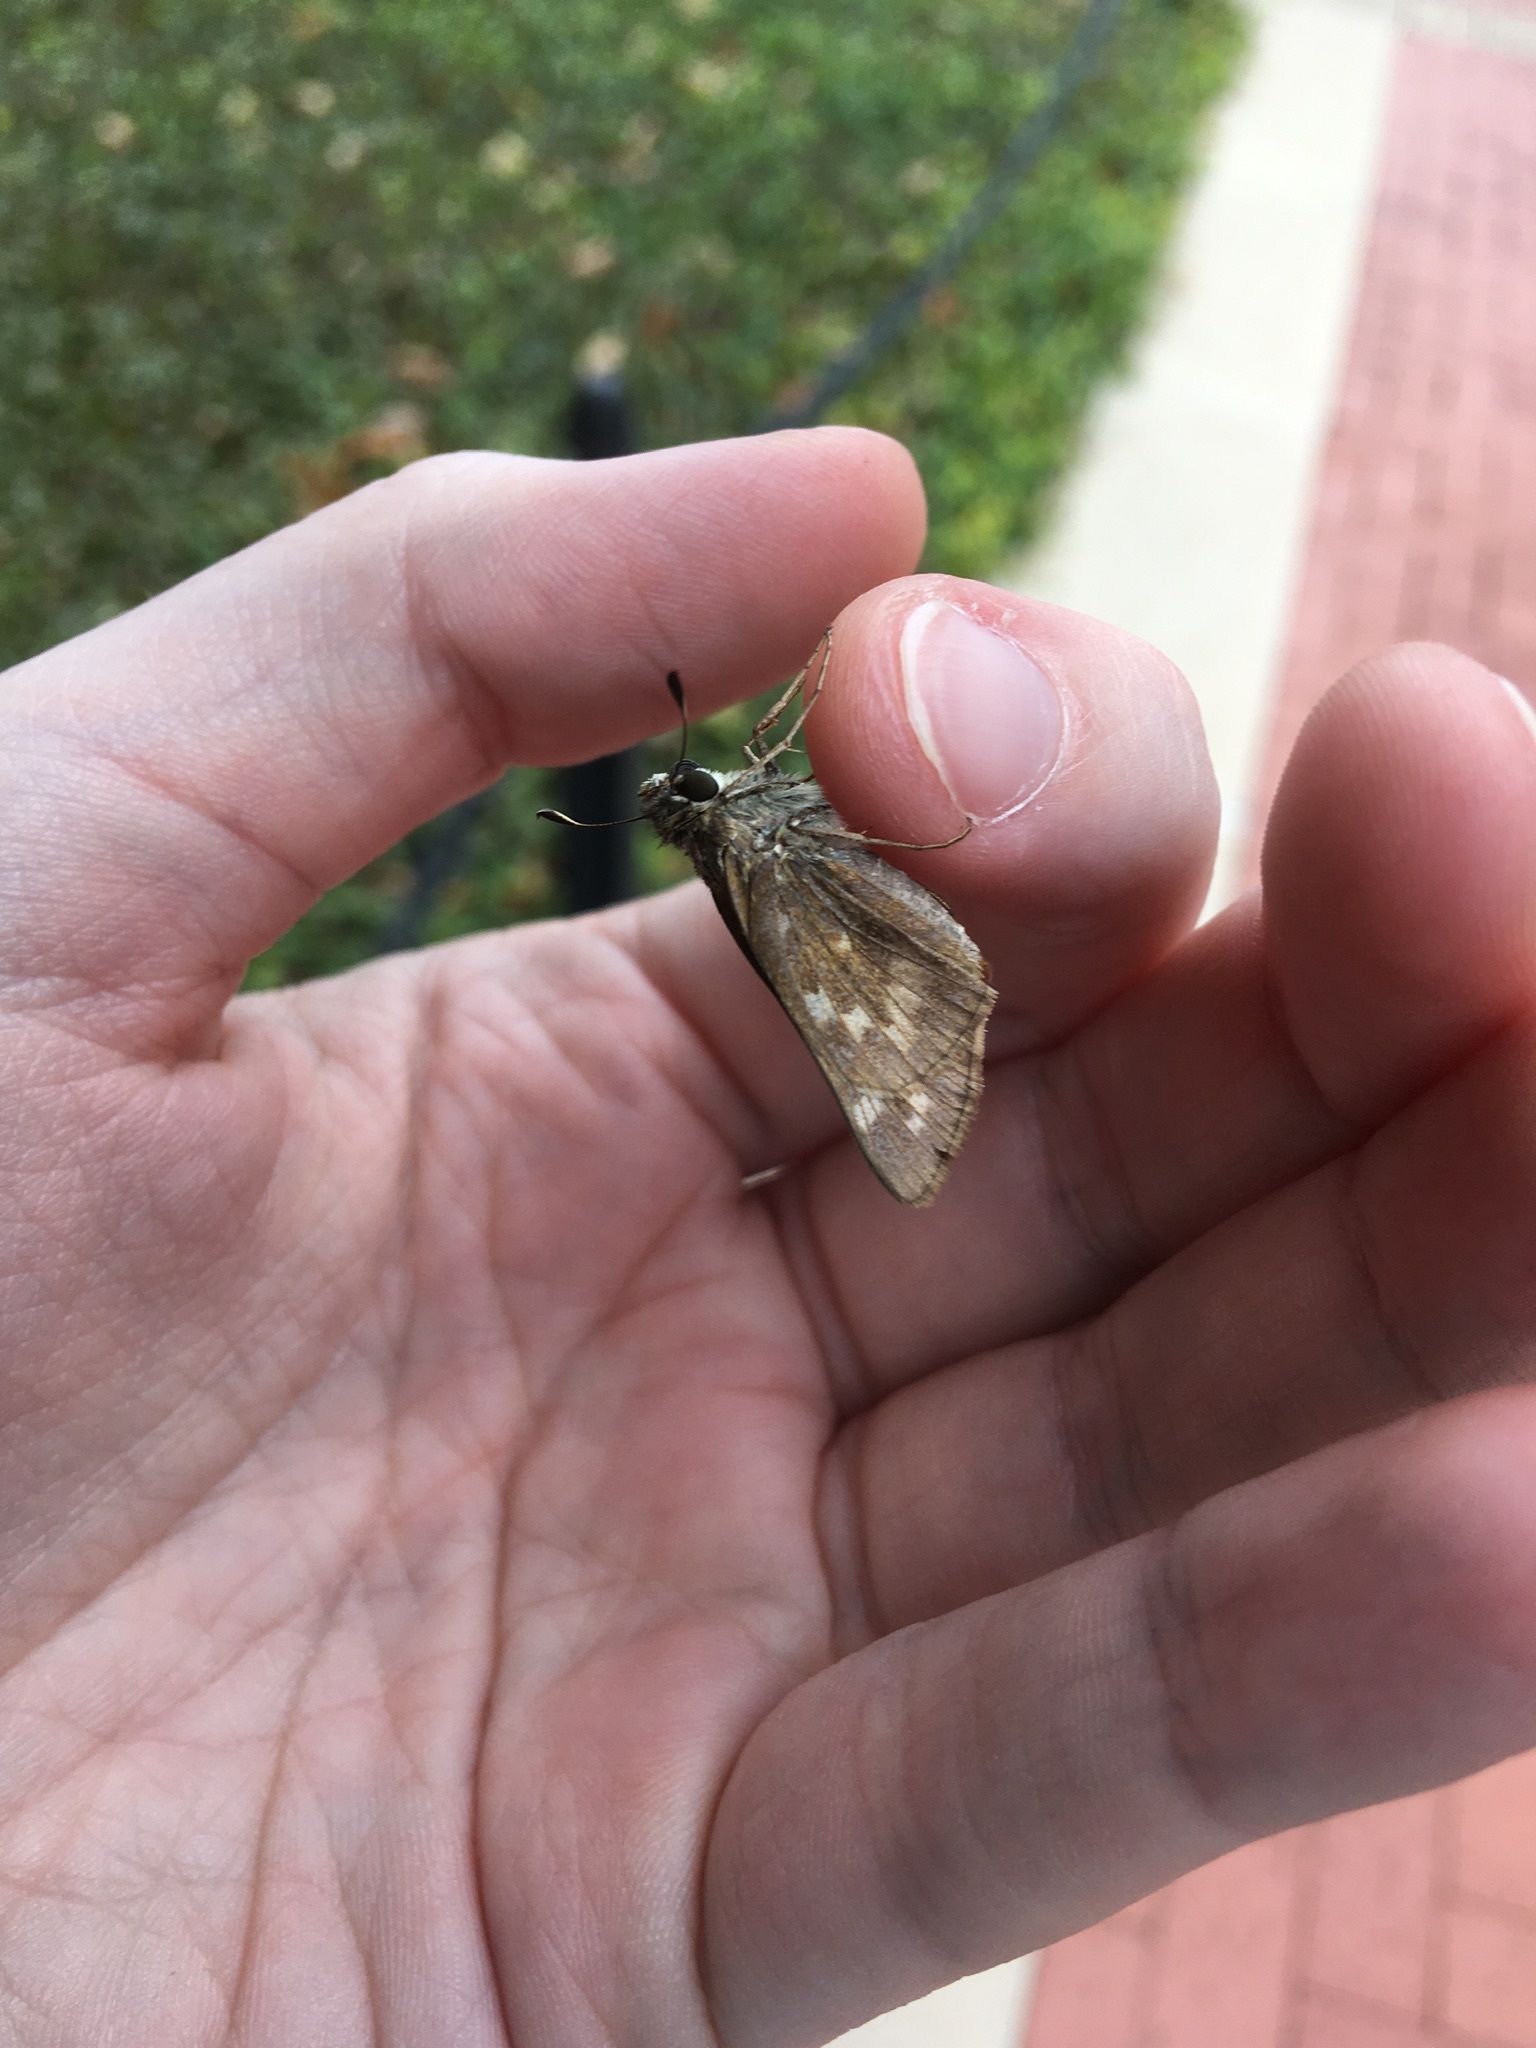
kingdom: Animalia
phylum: Arthropoda
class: Insecta
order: Lepidoptera
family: Hesperiidae
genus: Atalopedes
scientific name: Atalopedes
